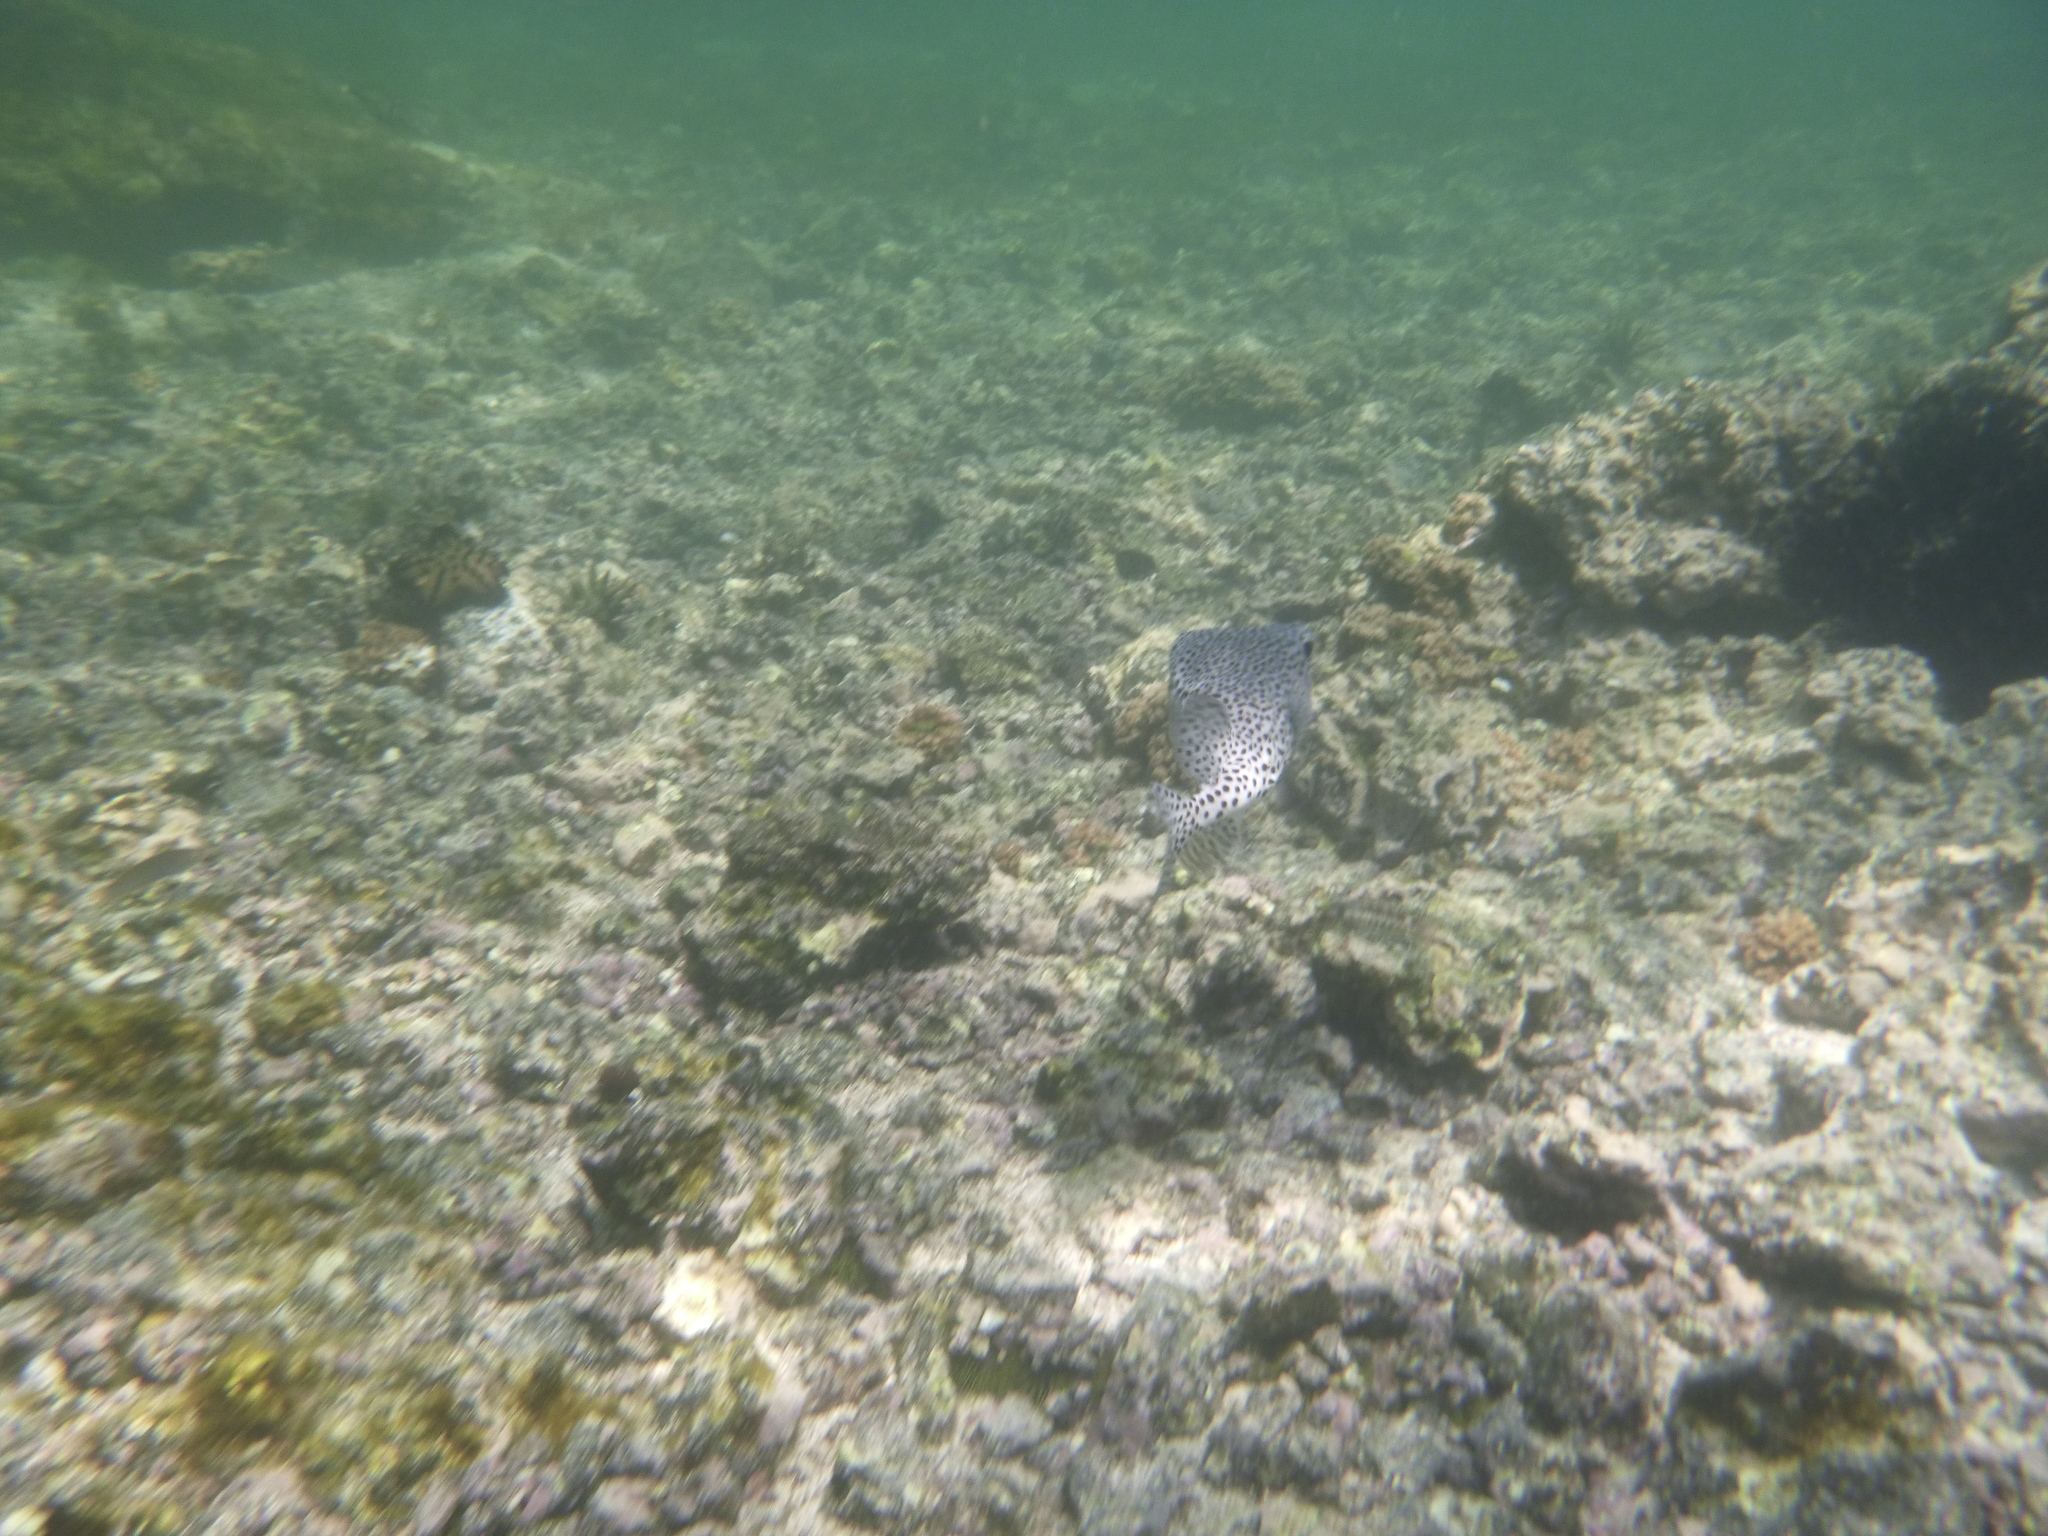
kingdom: Animalia
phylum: Chordata
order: Tetraodontiformes
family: Diodontidae
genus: Diodon
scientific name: Diodon hystrix
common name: Giant porcupinefish
